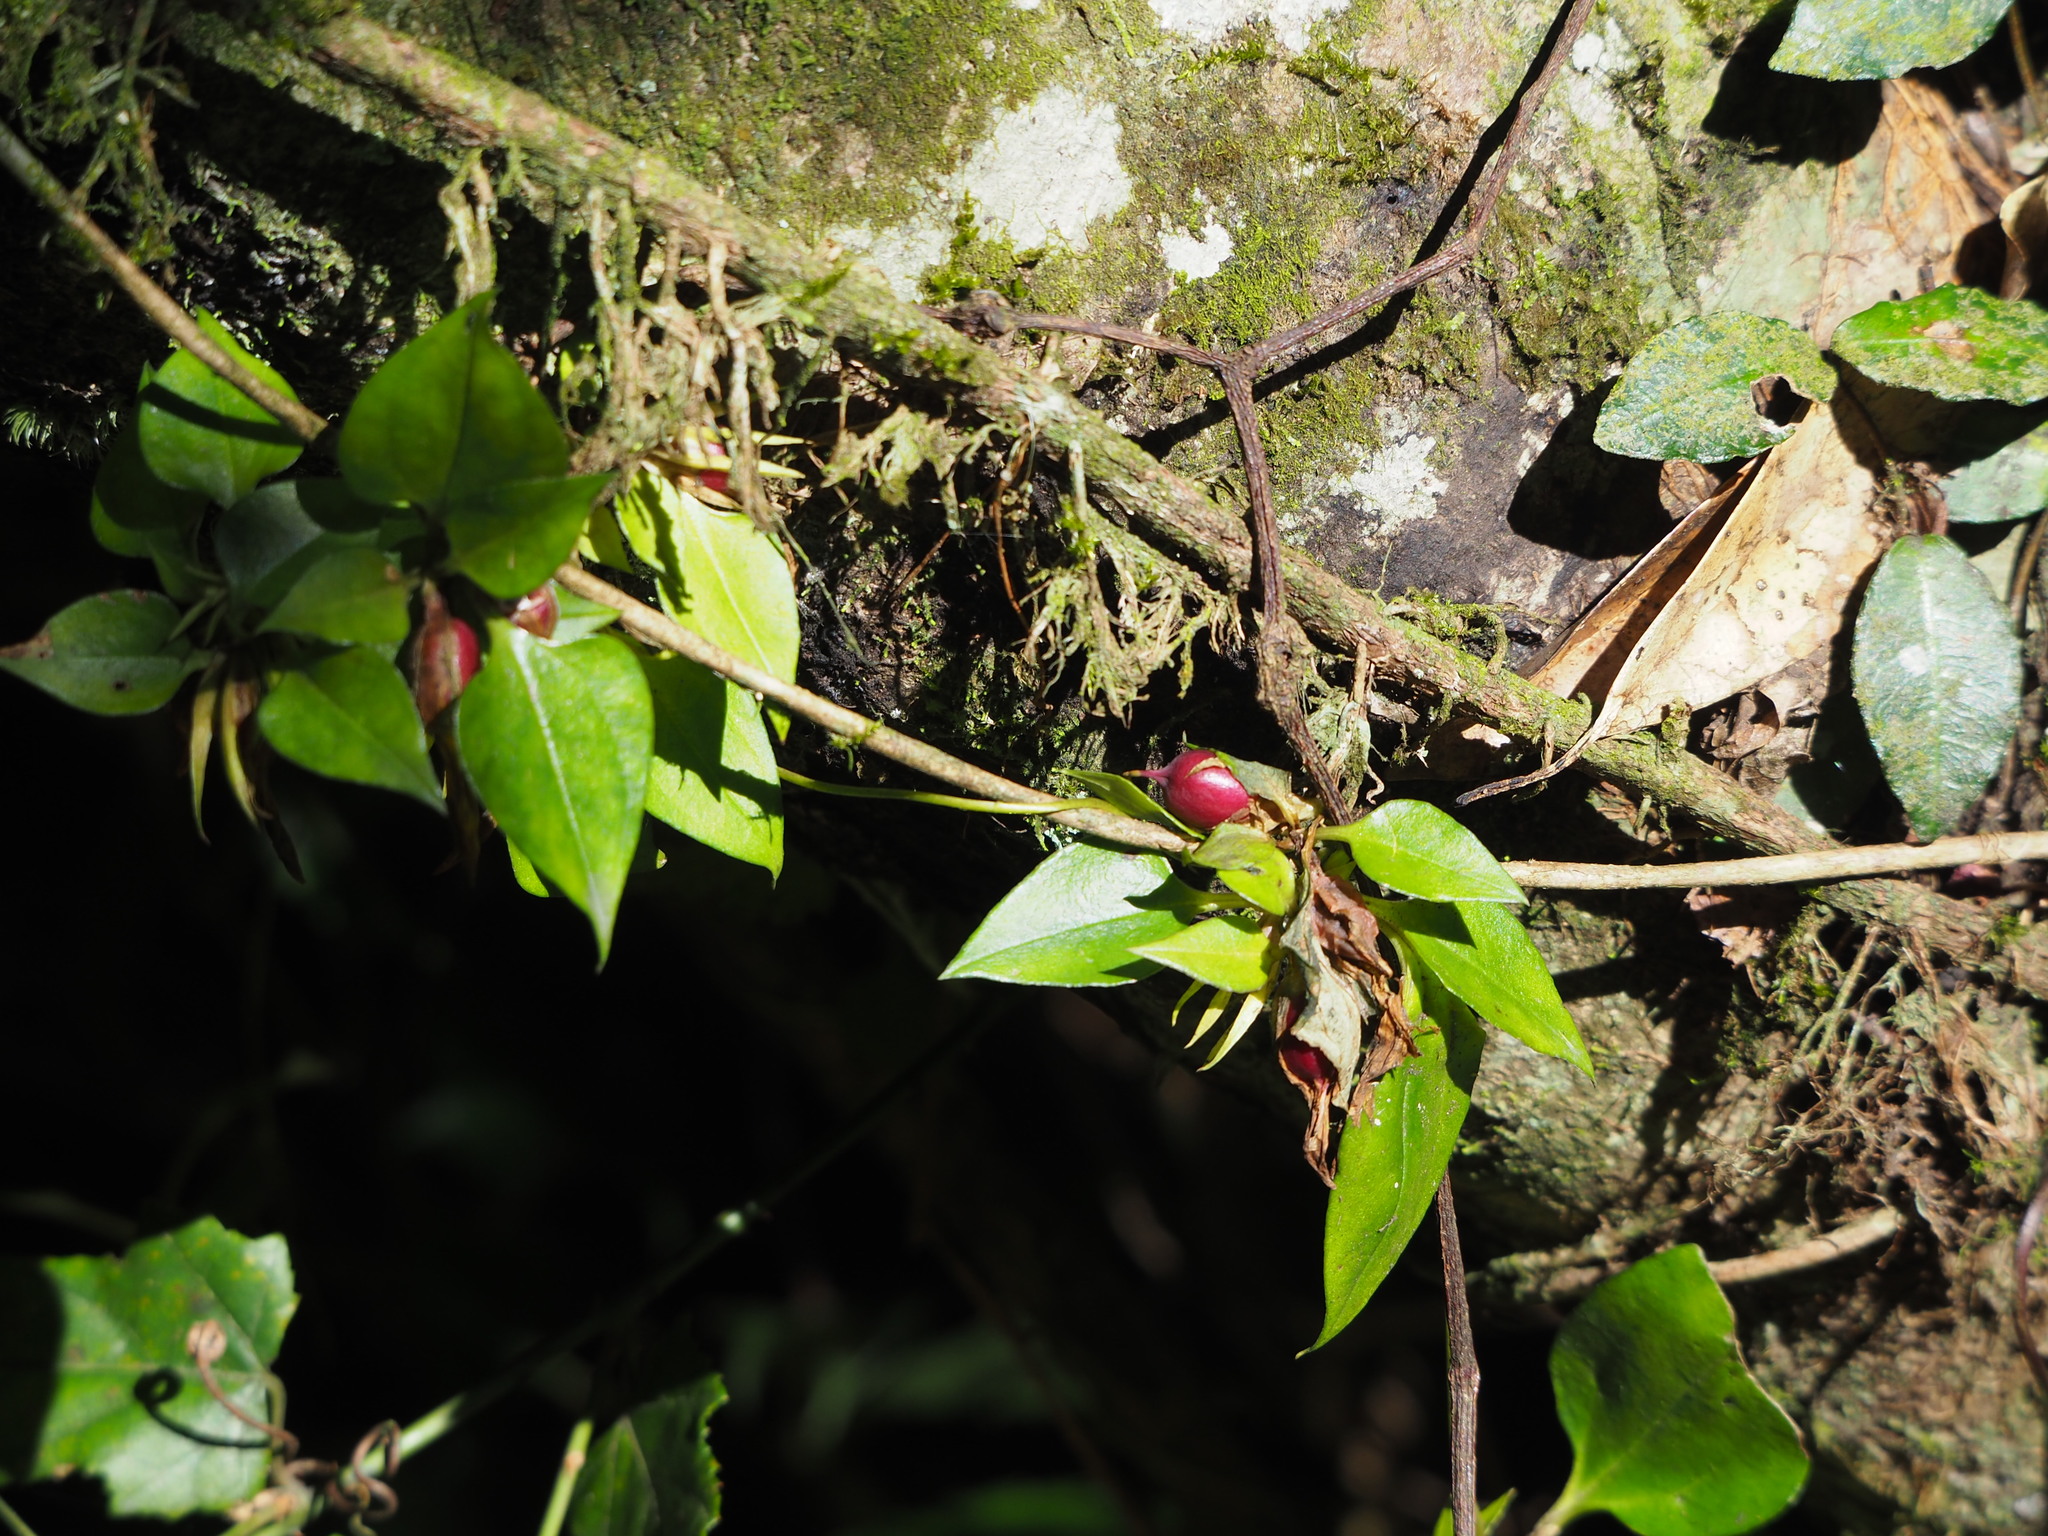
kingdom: Plantae
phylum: Tracheophyta
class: Magnoliopsida
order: Gentianales
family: Gentianaceae
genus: Tripterospermum
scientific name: Tripterospermum alutaceifolium
